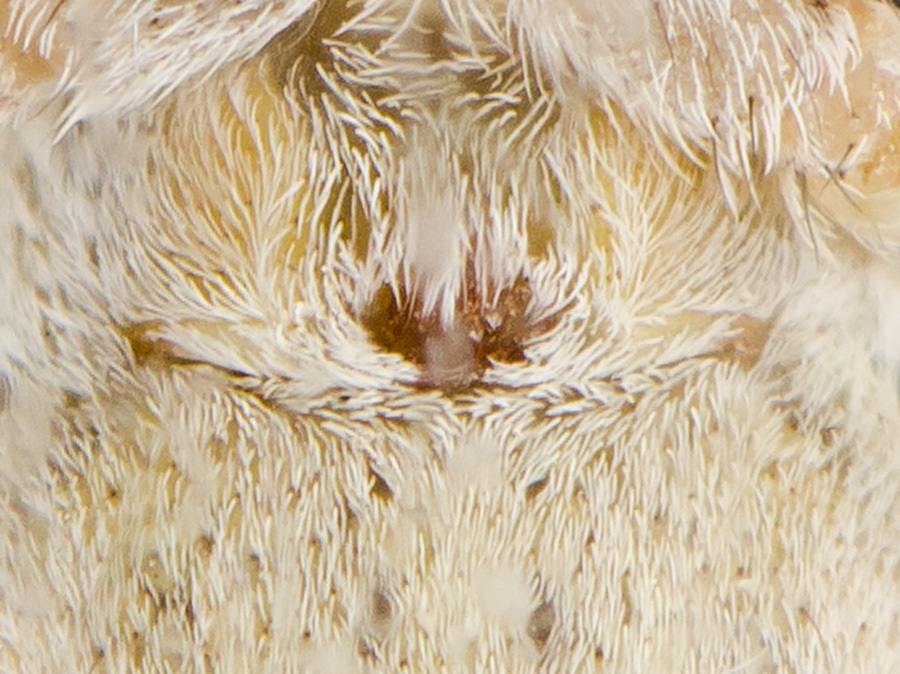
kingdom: Animalia
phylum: Arthropoda
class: Arachnida
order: Araneae
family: Philodromidae
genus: Thanatus
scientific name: Thanatus fabricii
